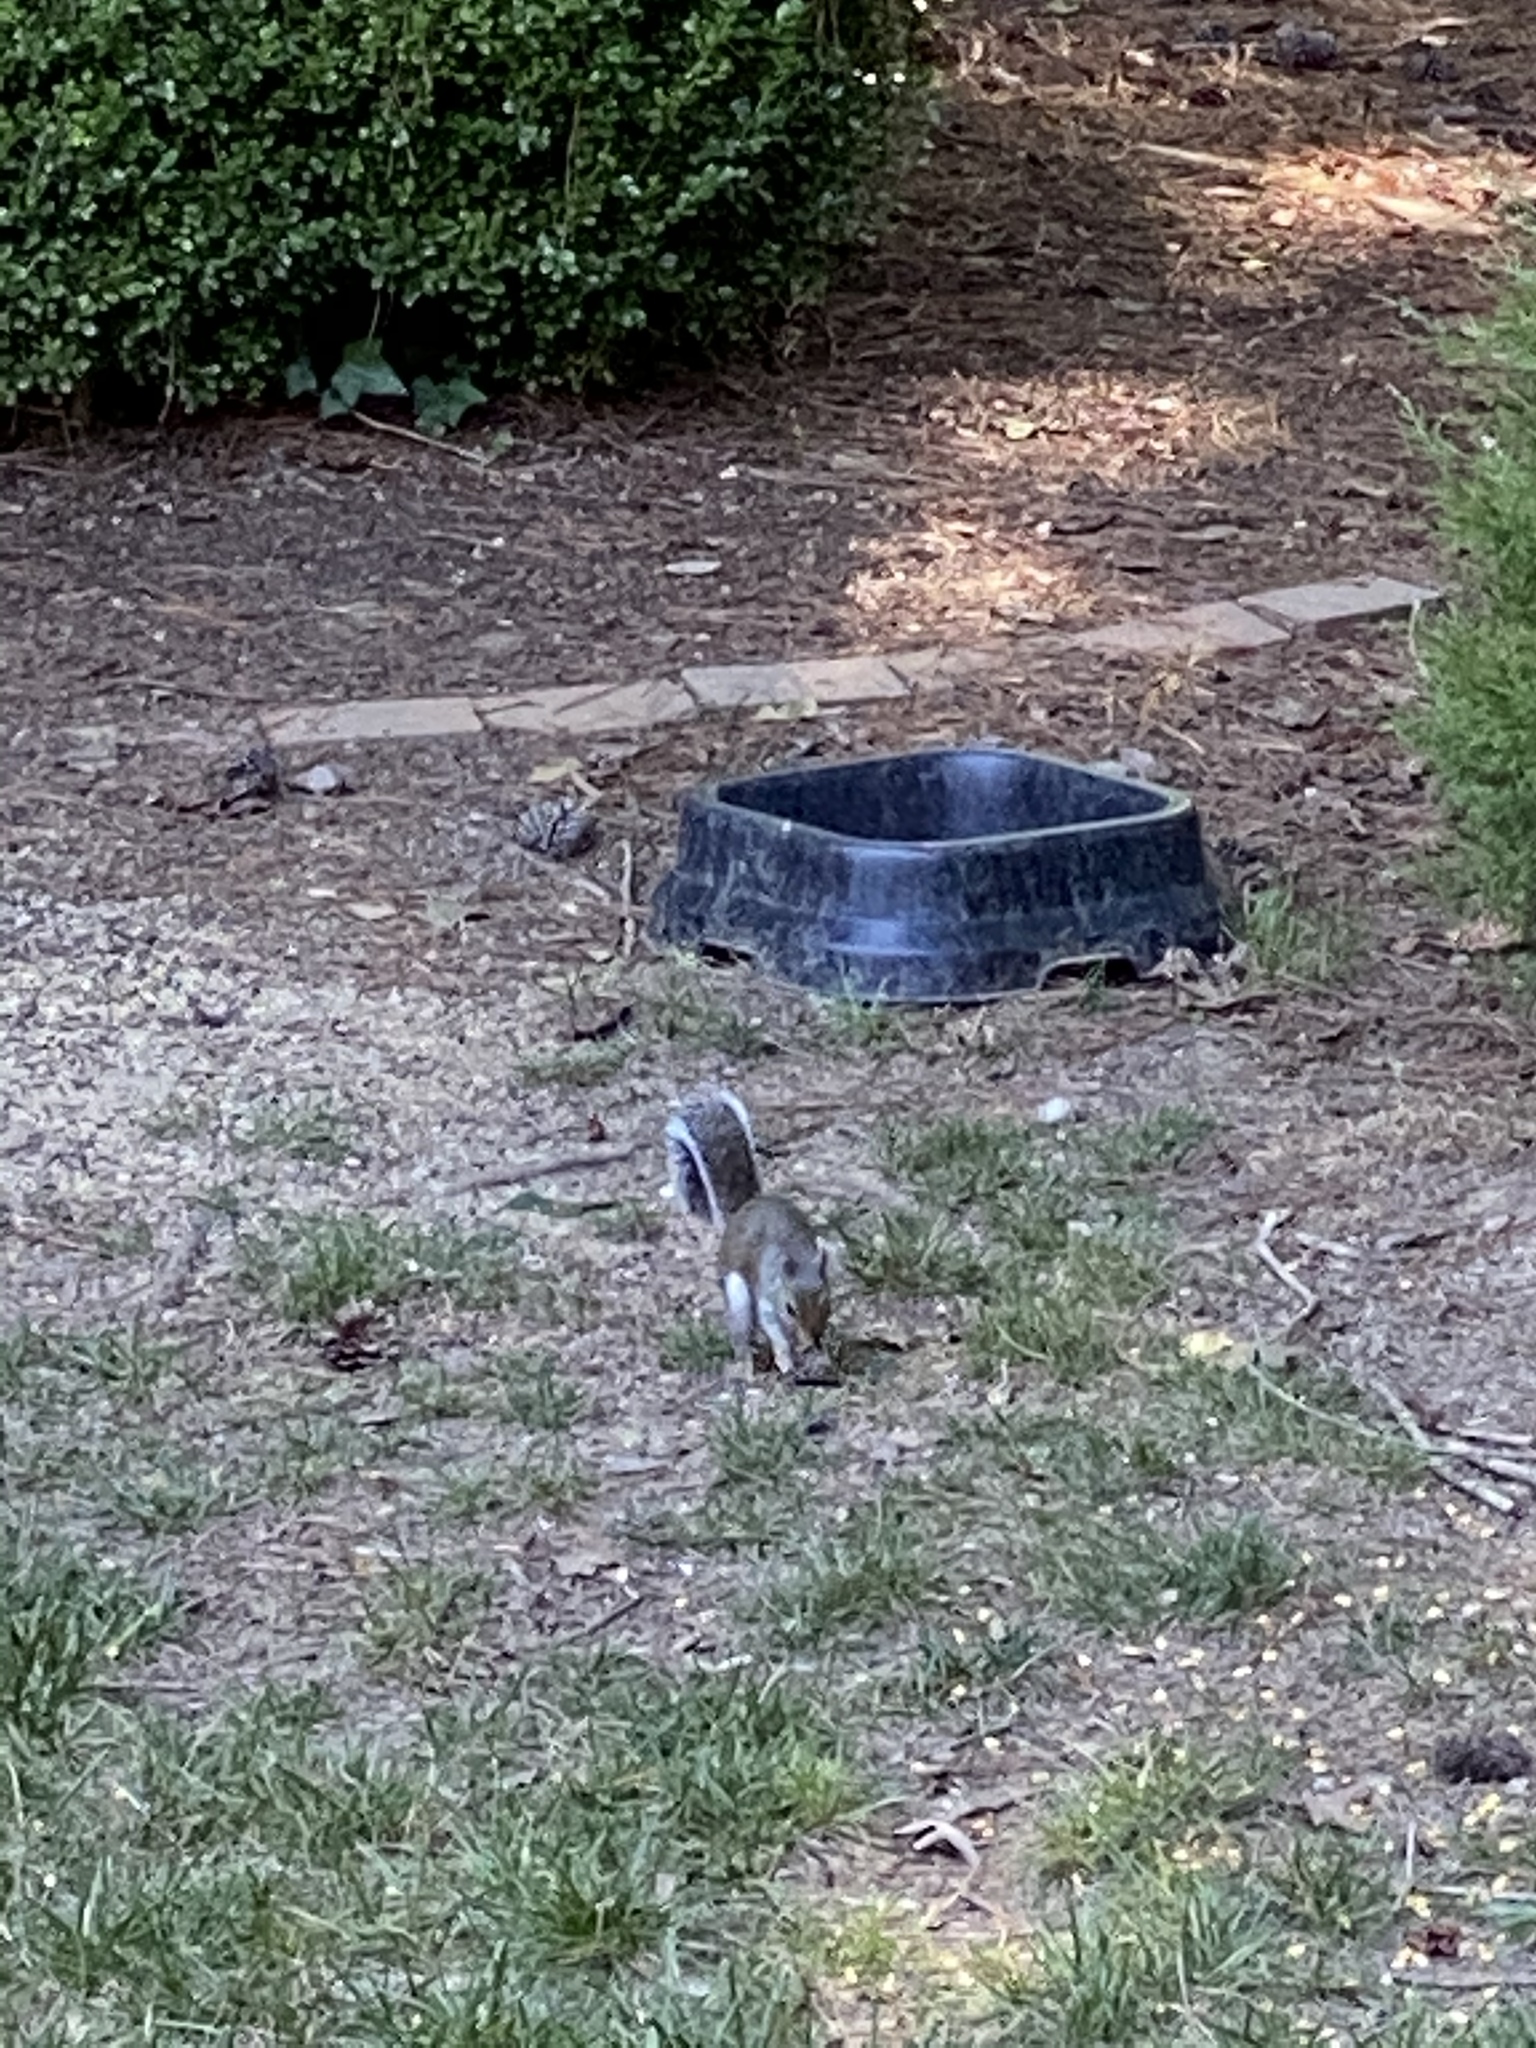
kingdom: Animalia
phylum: Chordata
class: Mammalia
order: Rodentia
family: Sciuridae
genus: Sciurus
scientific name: Sciurus carolinensis
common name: Eastern gray squirrel
